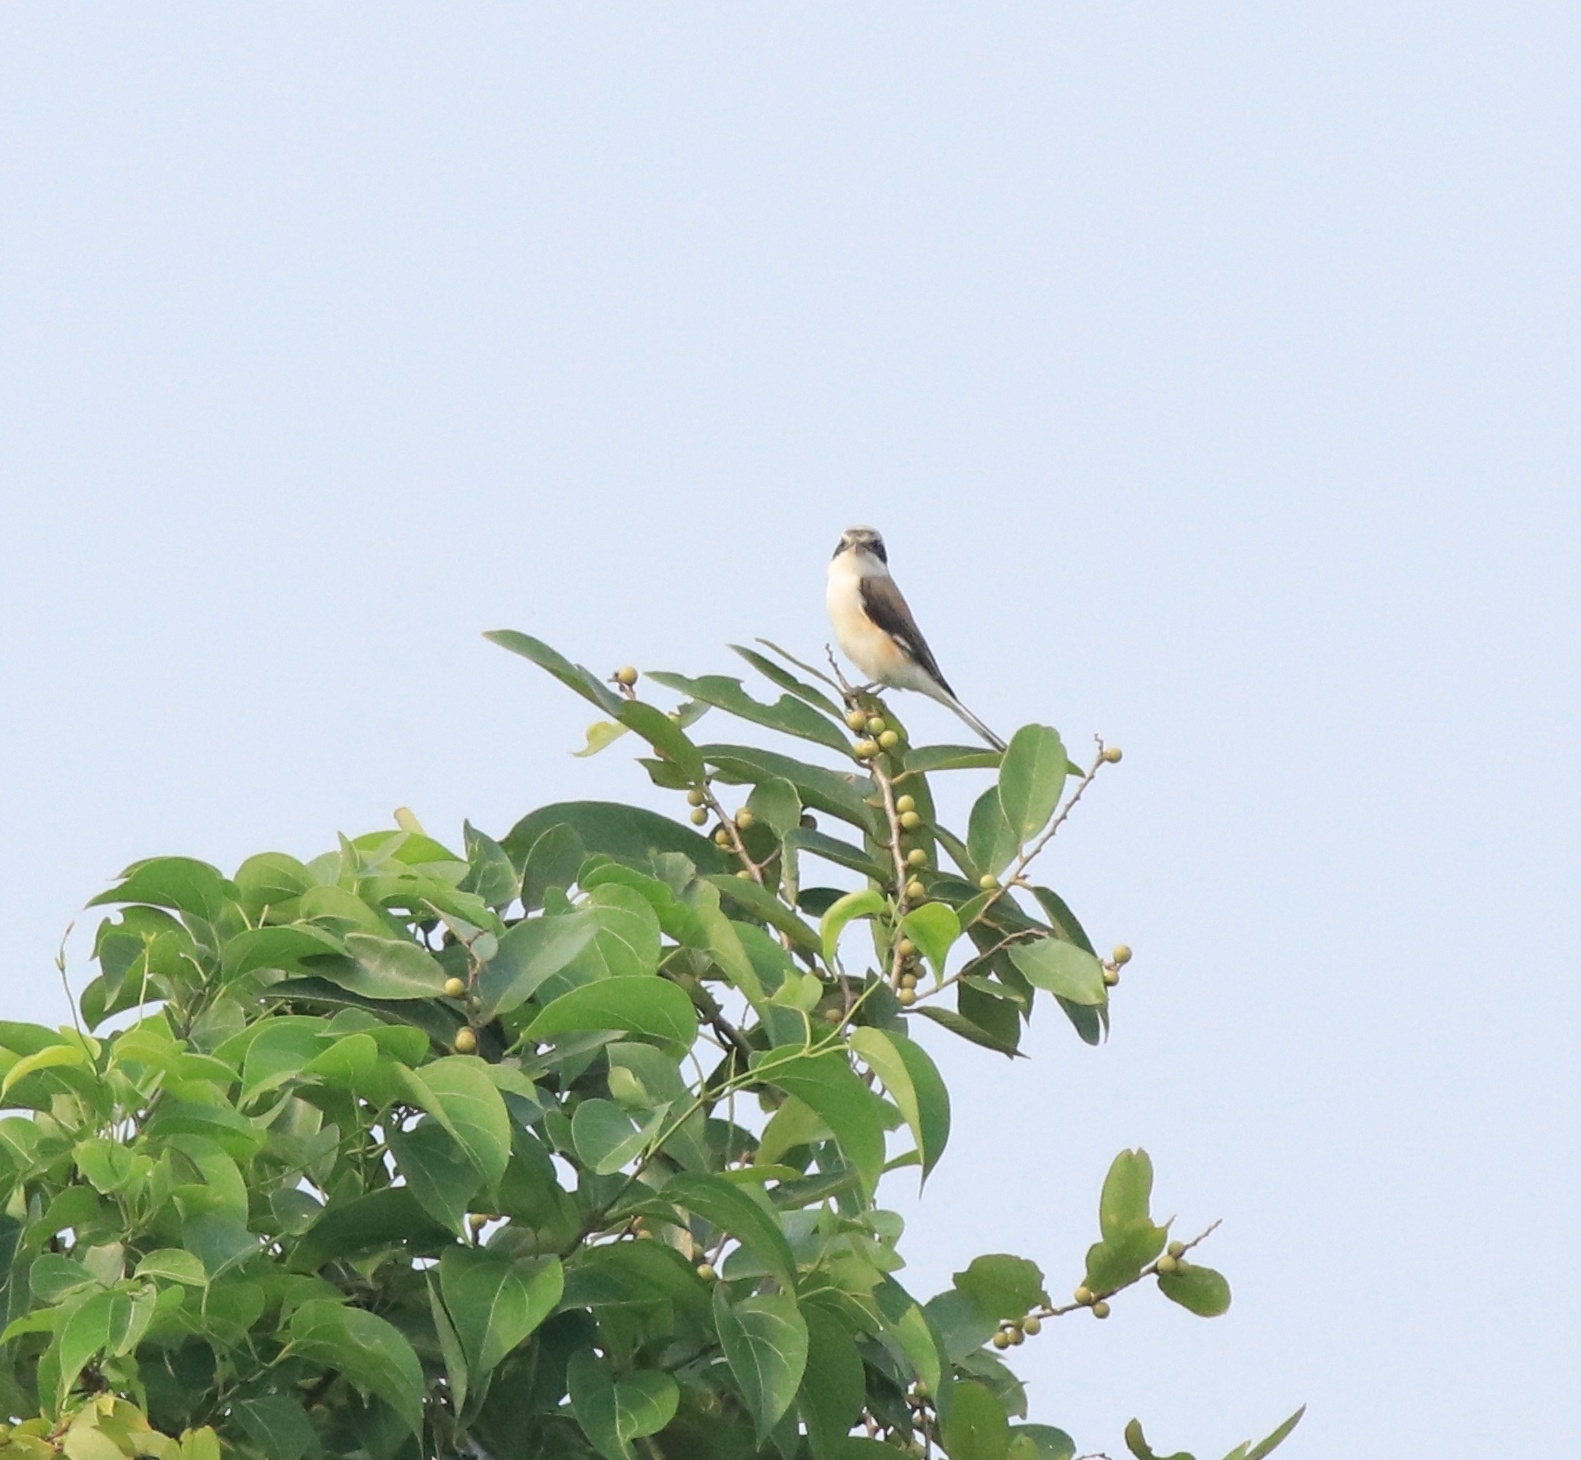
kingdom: Animalia
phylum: Chordata
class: Aves
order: Passeriformes
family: Laniidae
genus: Lanius
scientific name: Lanius vittatus
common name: Bay-backed shrike
